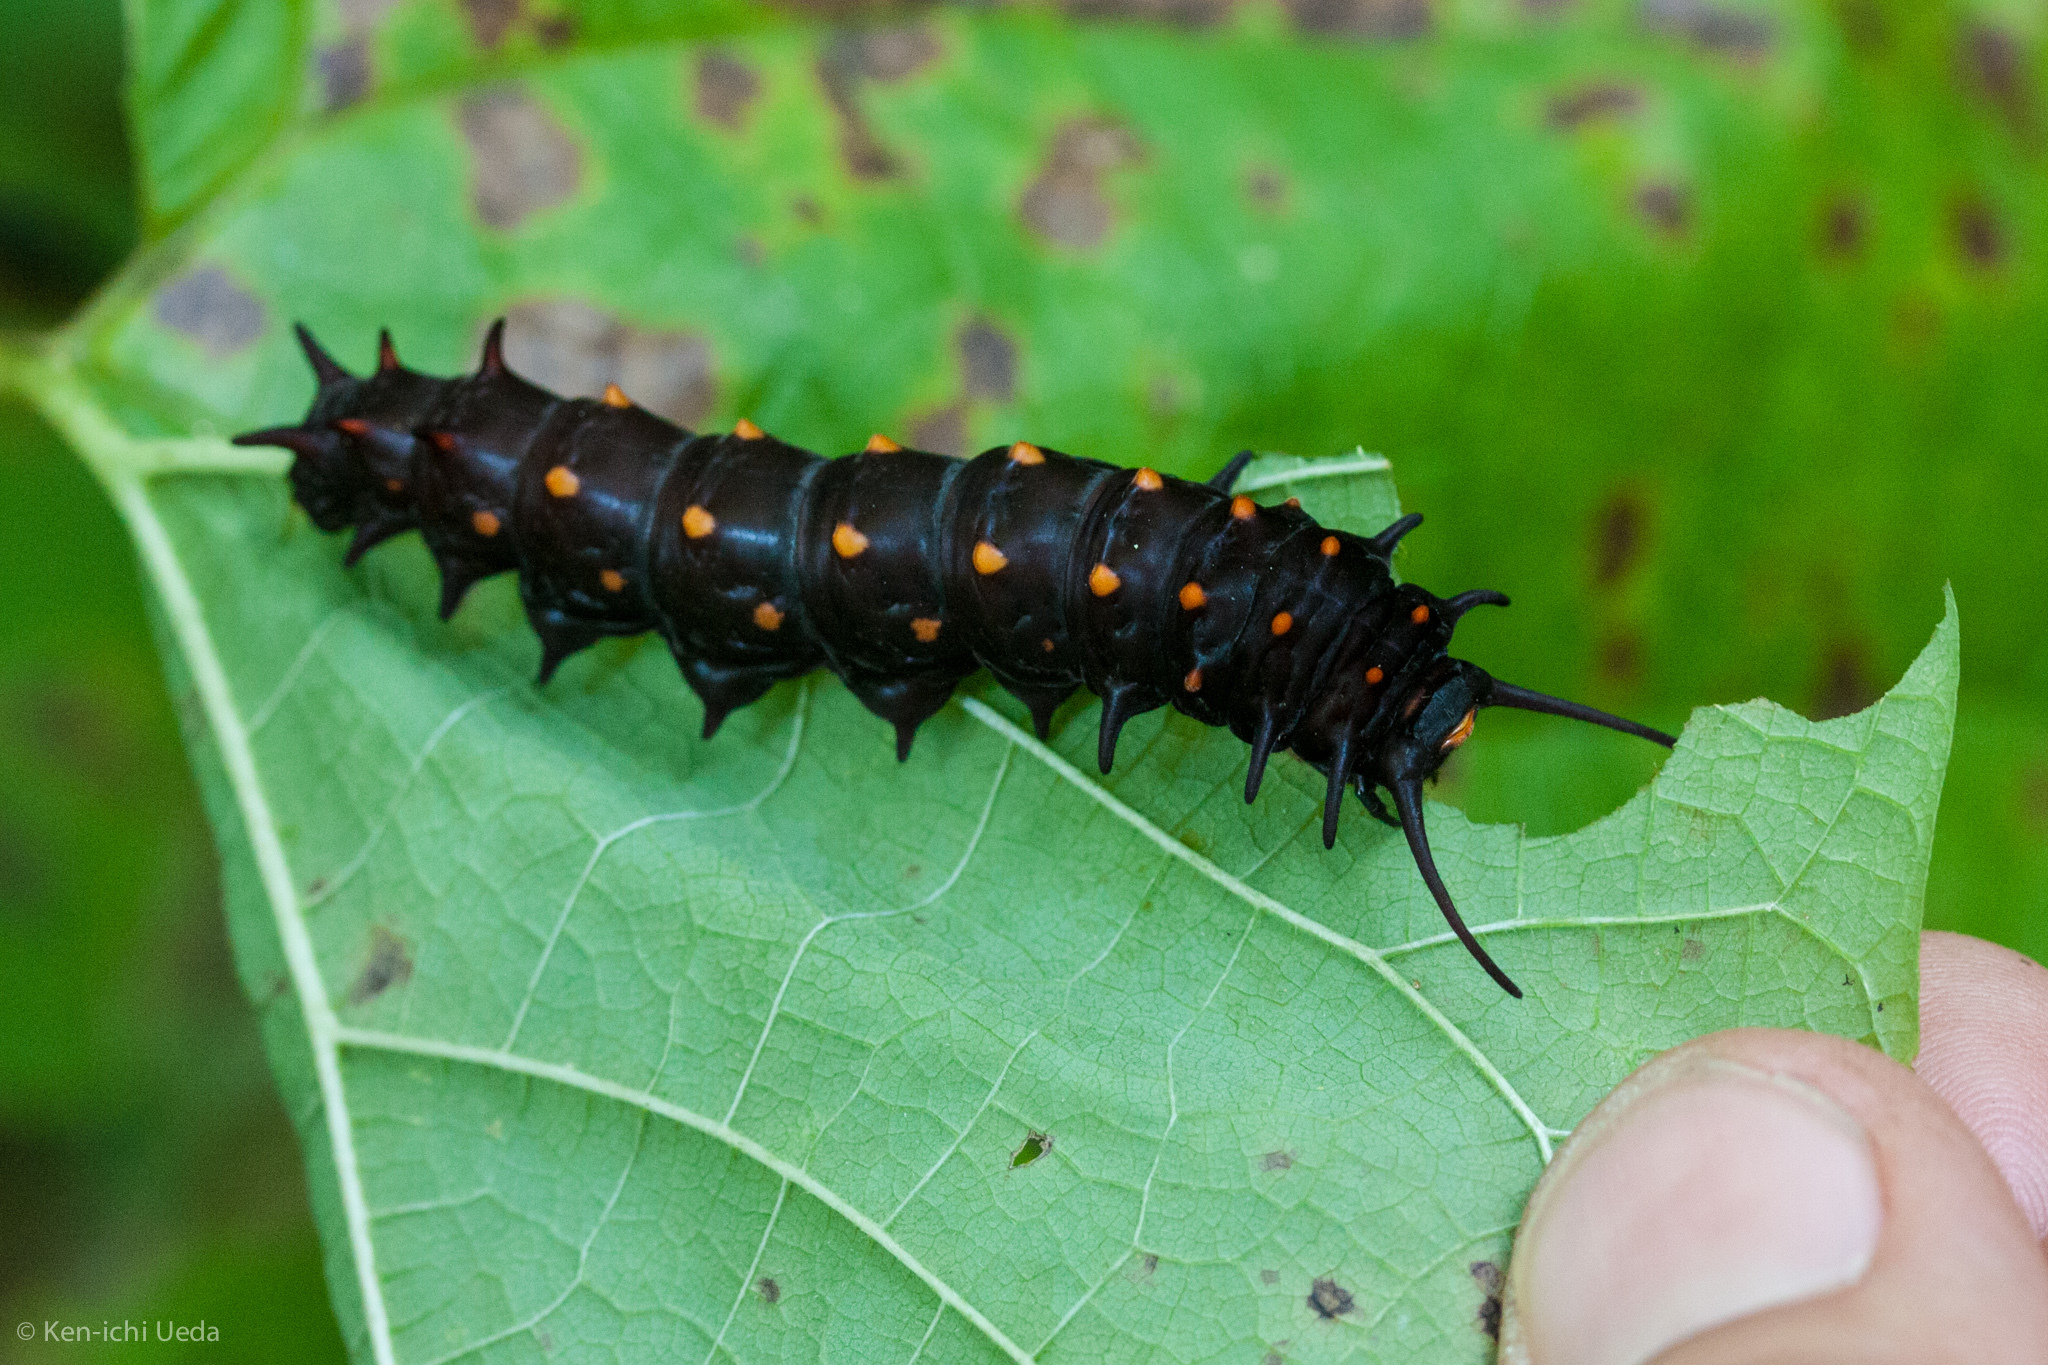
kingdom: Animalia
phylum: Arthropoda
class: Insecta
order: Lepidoptera
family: Papilionidae
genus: Battus
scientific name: Battus philenor
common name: Pipevine swallowtail
